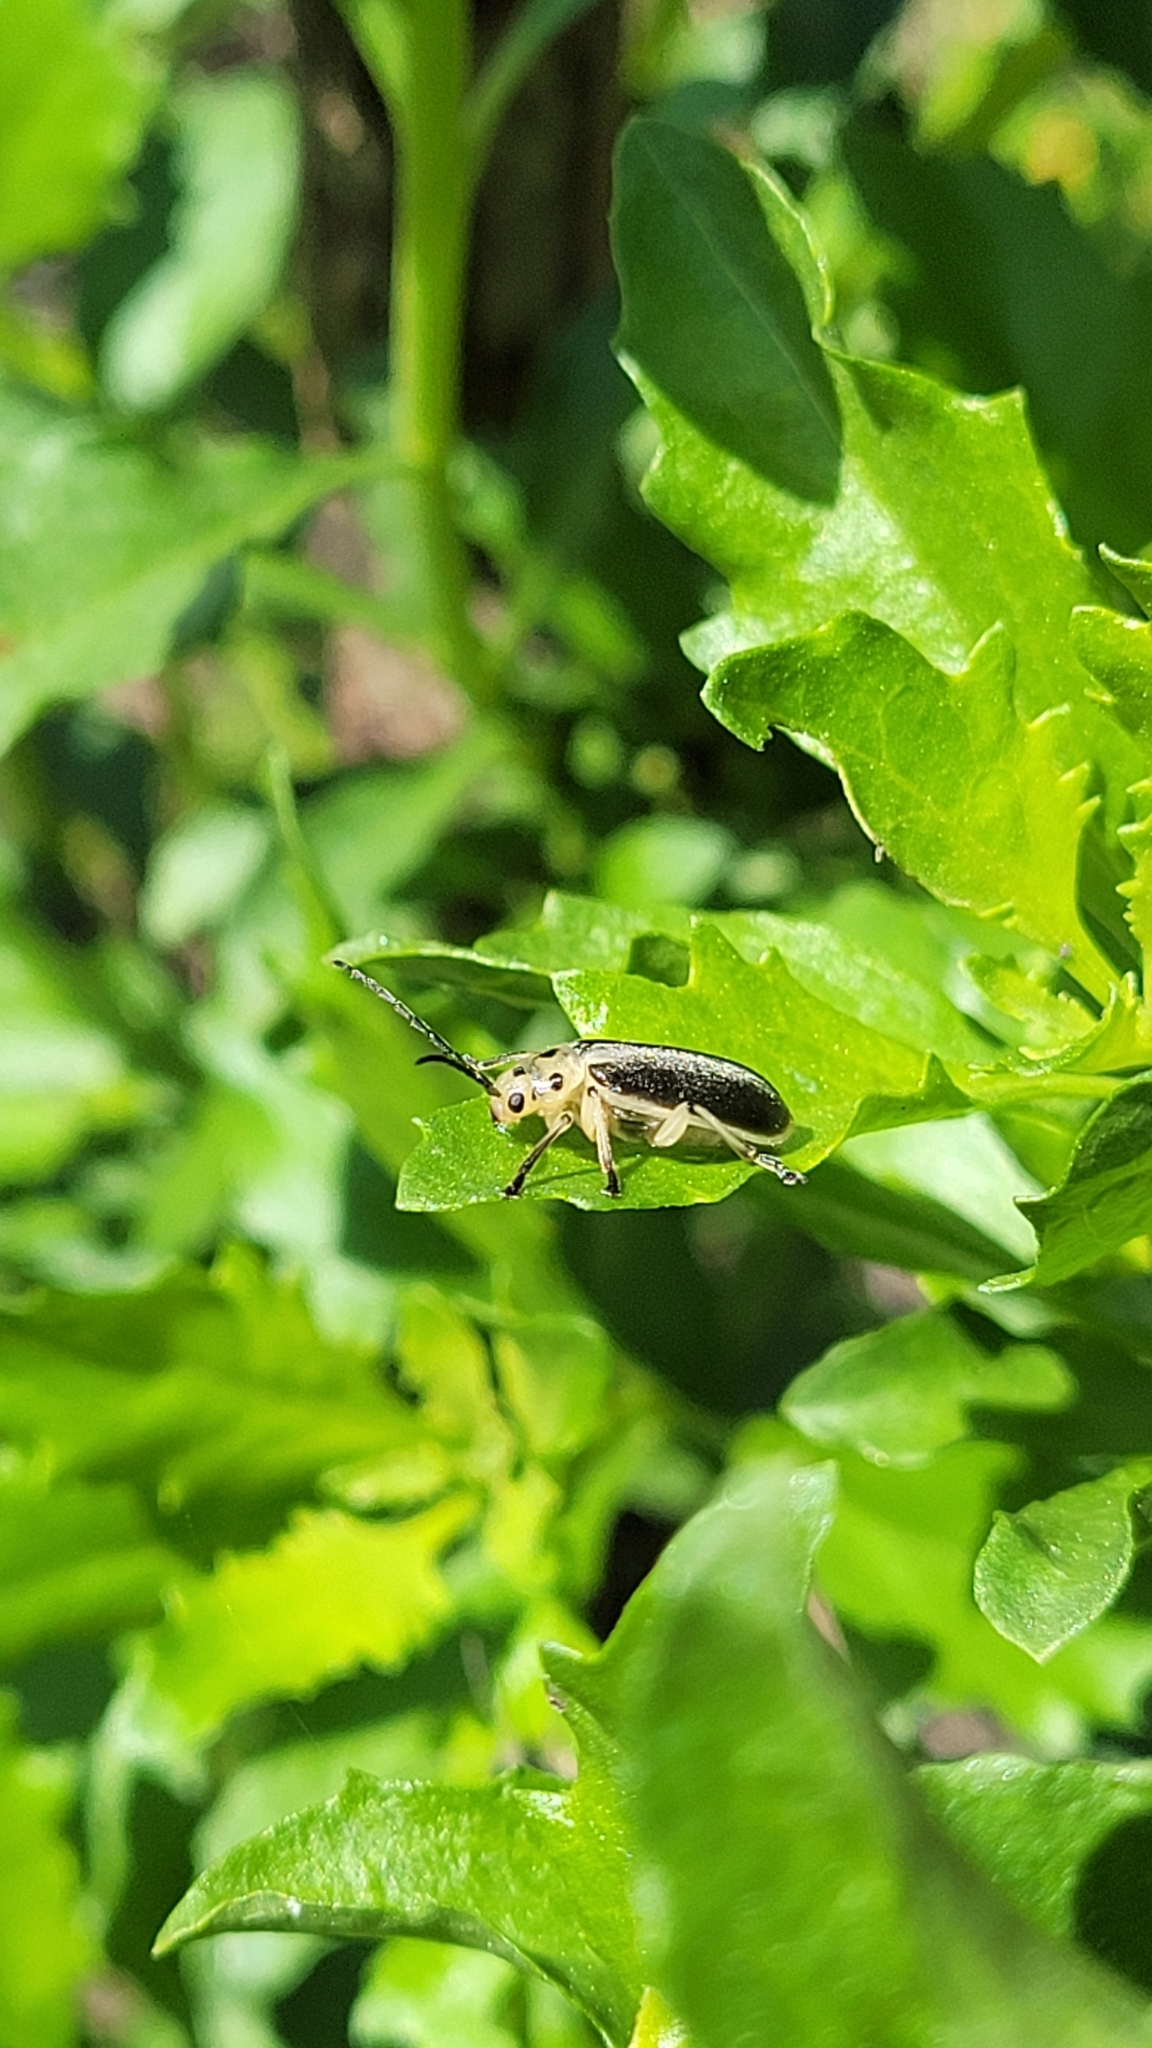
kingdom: Animalia
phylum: Arthropoda
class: Insecta
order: Coleoptera
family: Chrysomelidae
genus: Trirhabda
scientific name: Trirhabda bacharidis
